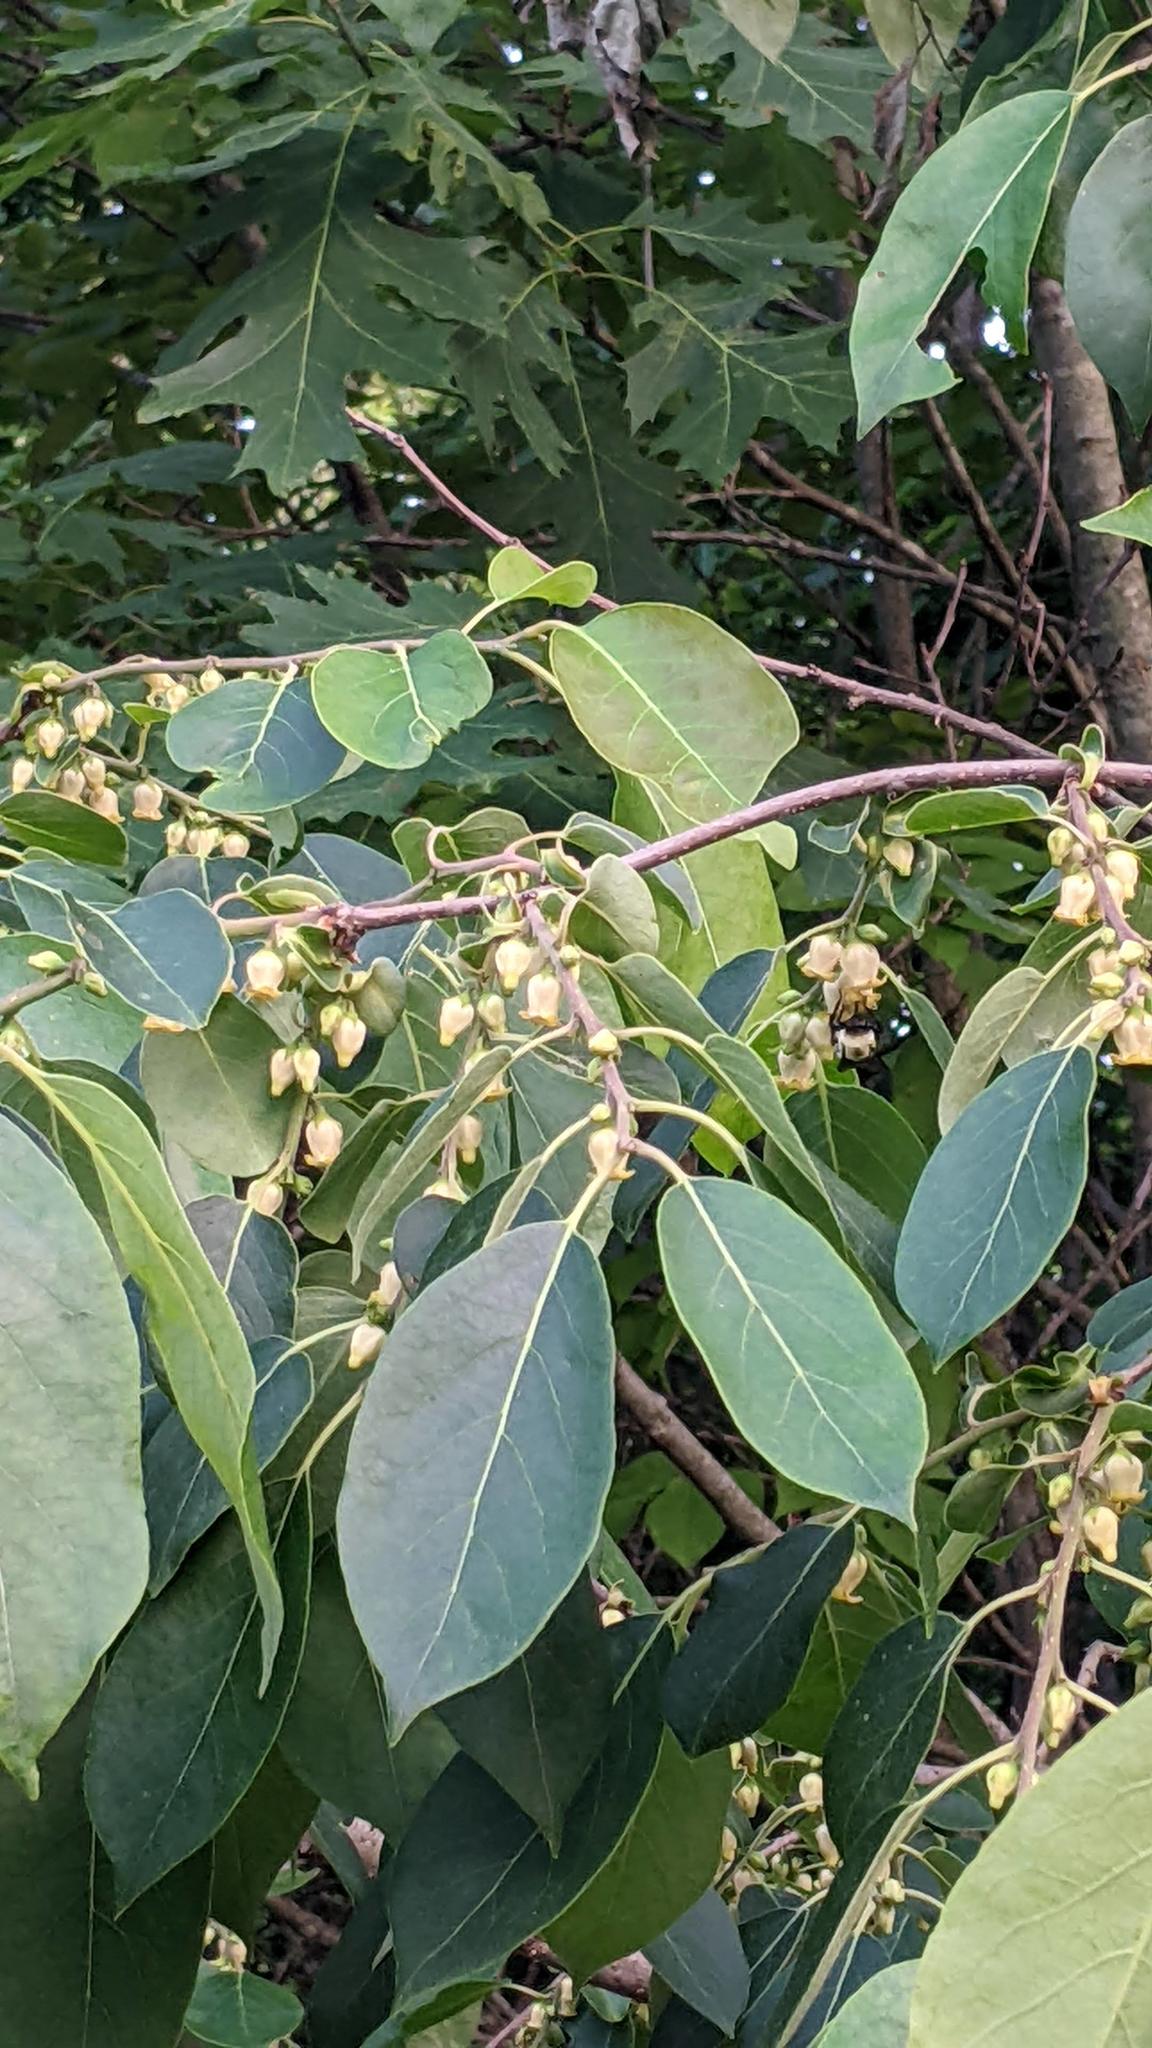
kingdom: Animalia
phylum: Arthropoda
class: Insecta
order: Hymenoptera
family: Apidae
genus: Bombus
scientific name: Bombus griseocollis
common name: Brown-belted bumble bee
